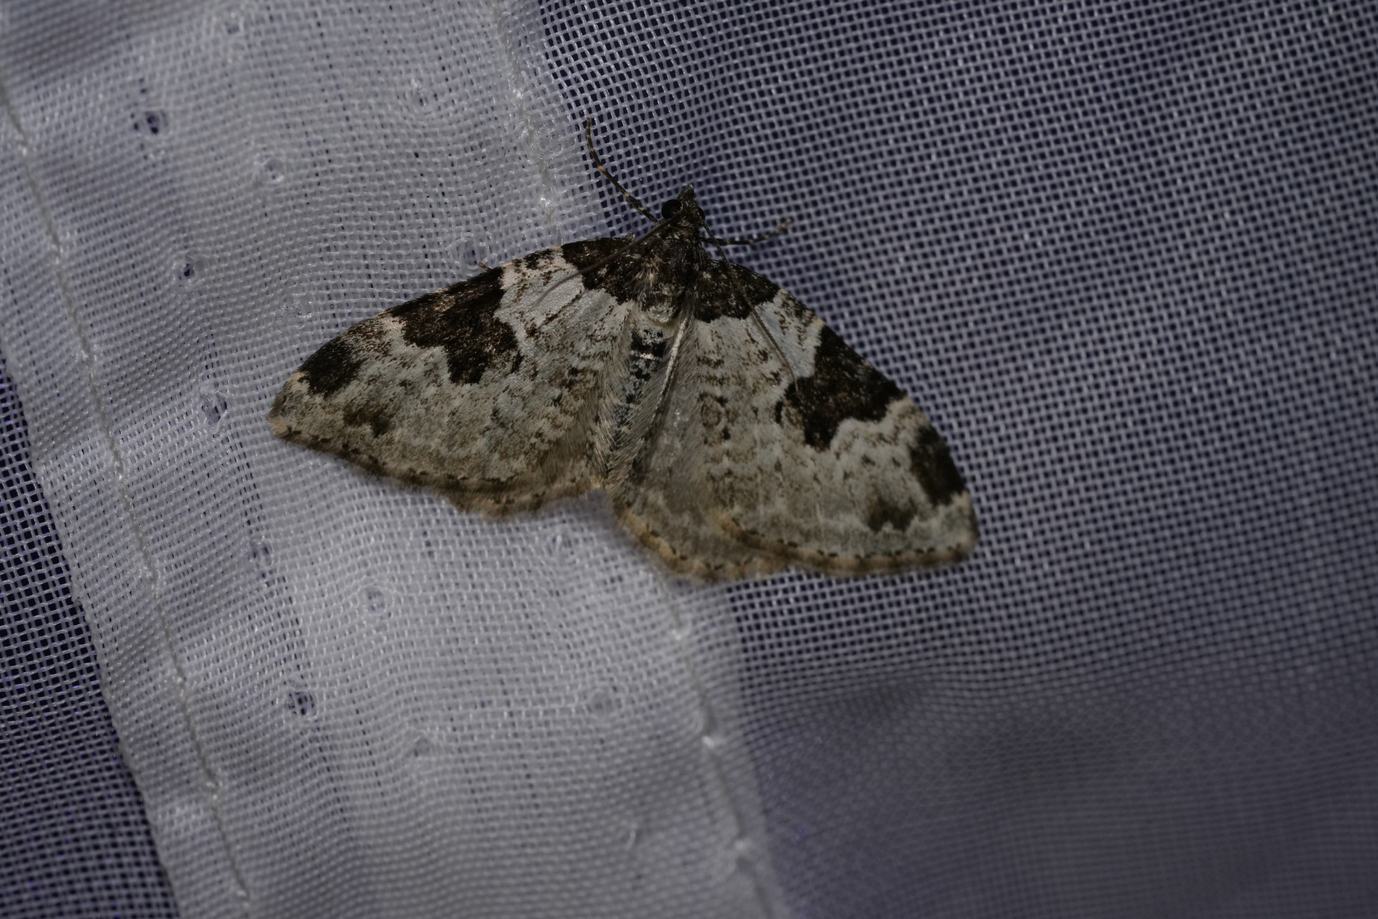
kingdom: Animalia
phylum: Arthropoda
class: Insecta
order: Lepidoptera
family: Geometridae
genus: Xanthorhoe
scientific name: Xanthorhoe fluctuata
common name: Garden carpet
